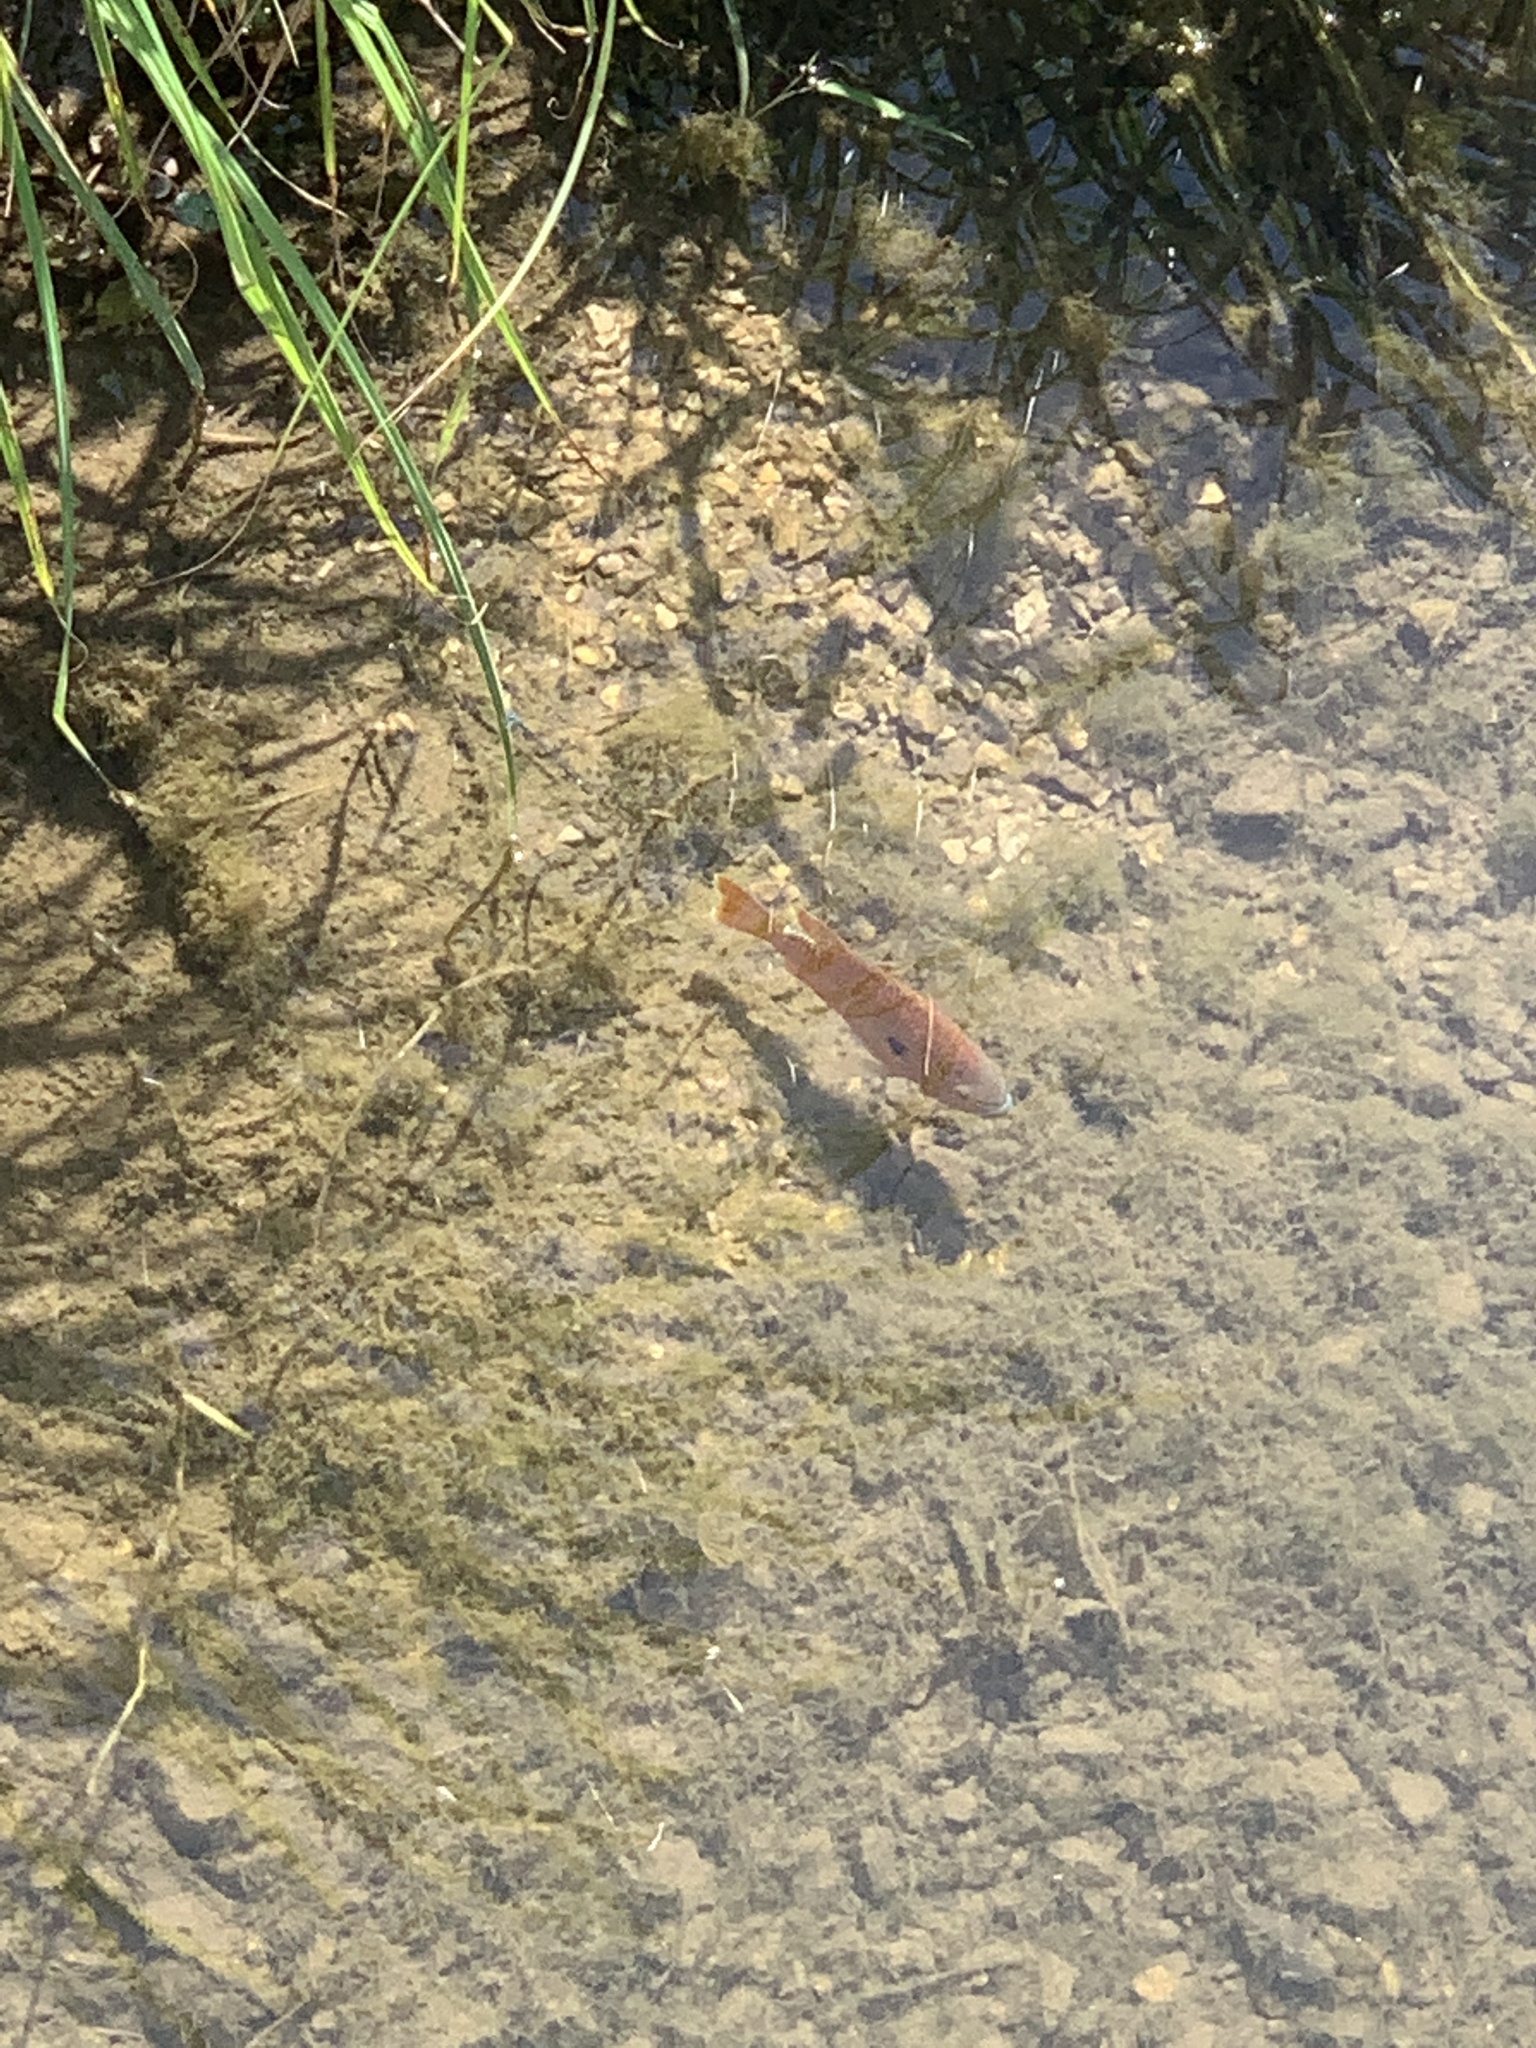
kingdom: Animalia
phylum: Chordata
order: Perciformes
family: Centrarchidae
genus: Lepomis
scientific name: Lepomis megalotis
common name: Longear sunfish
